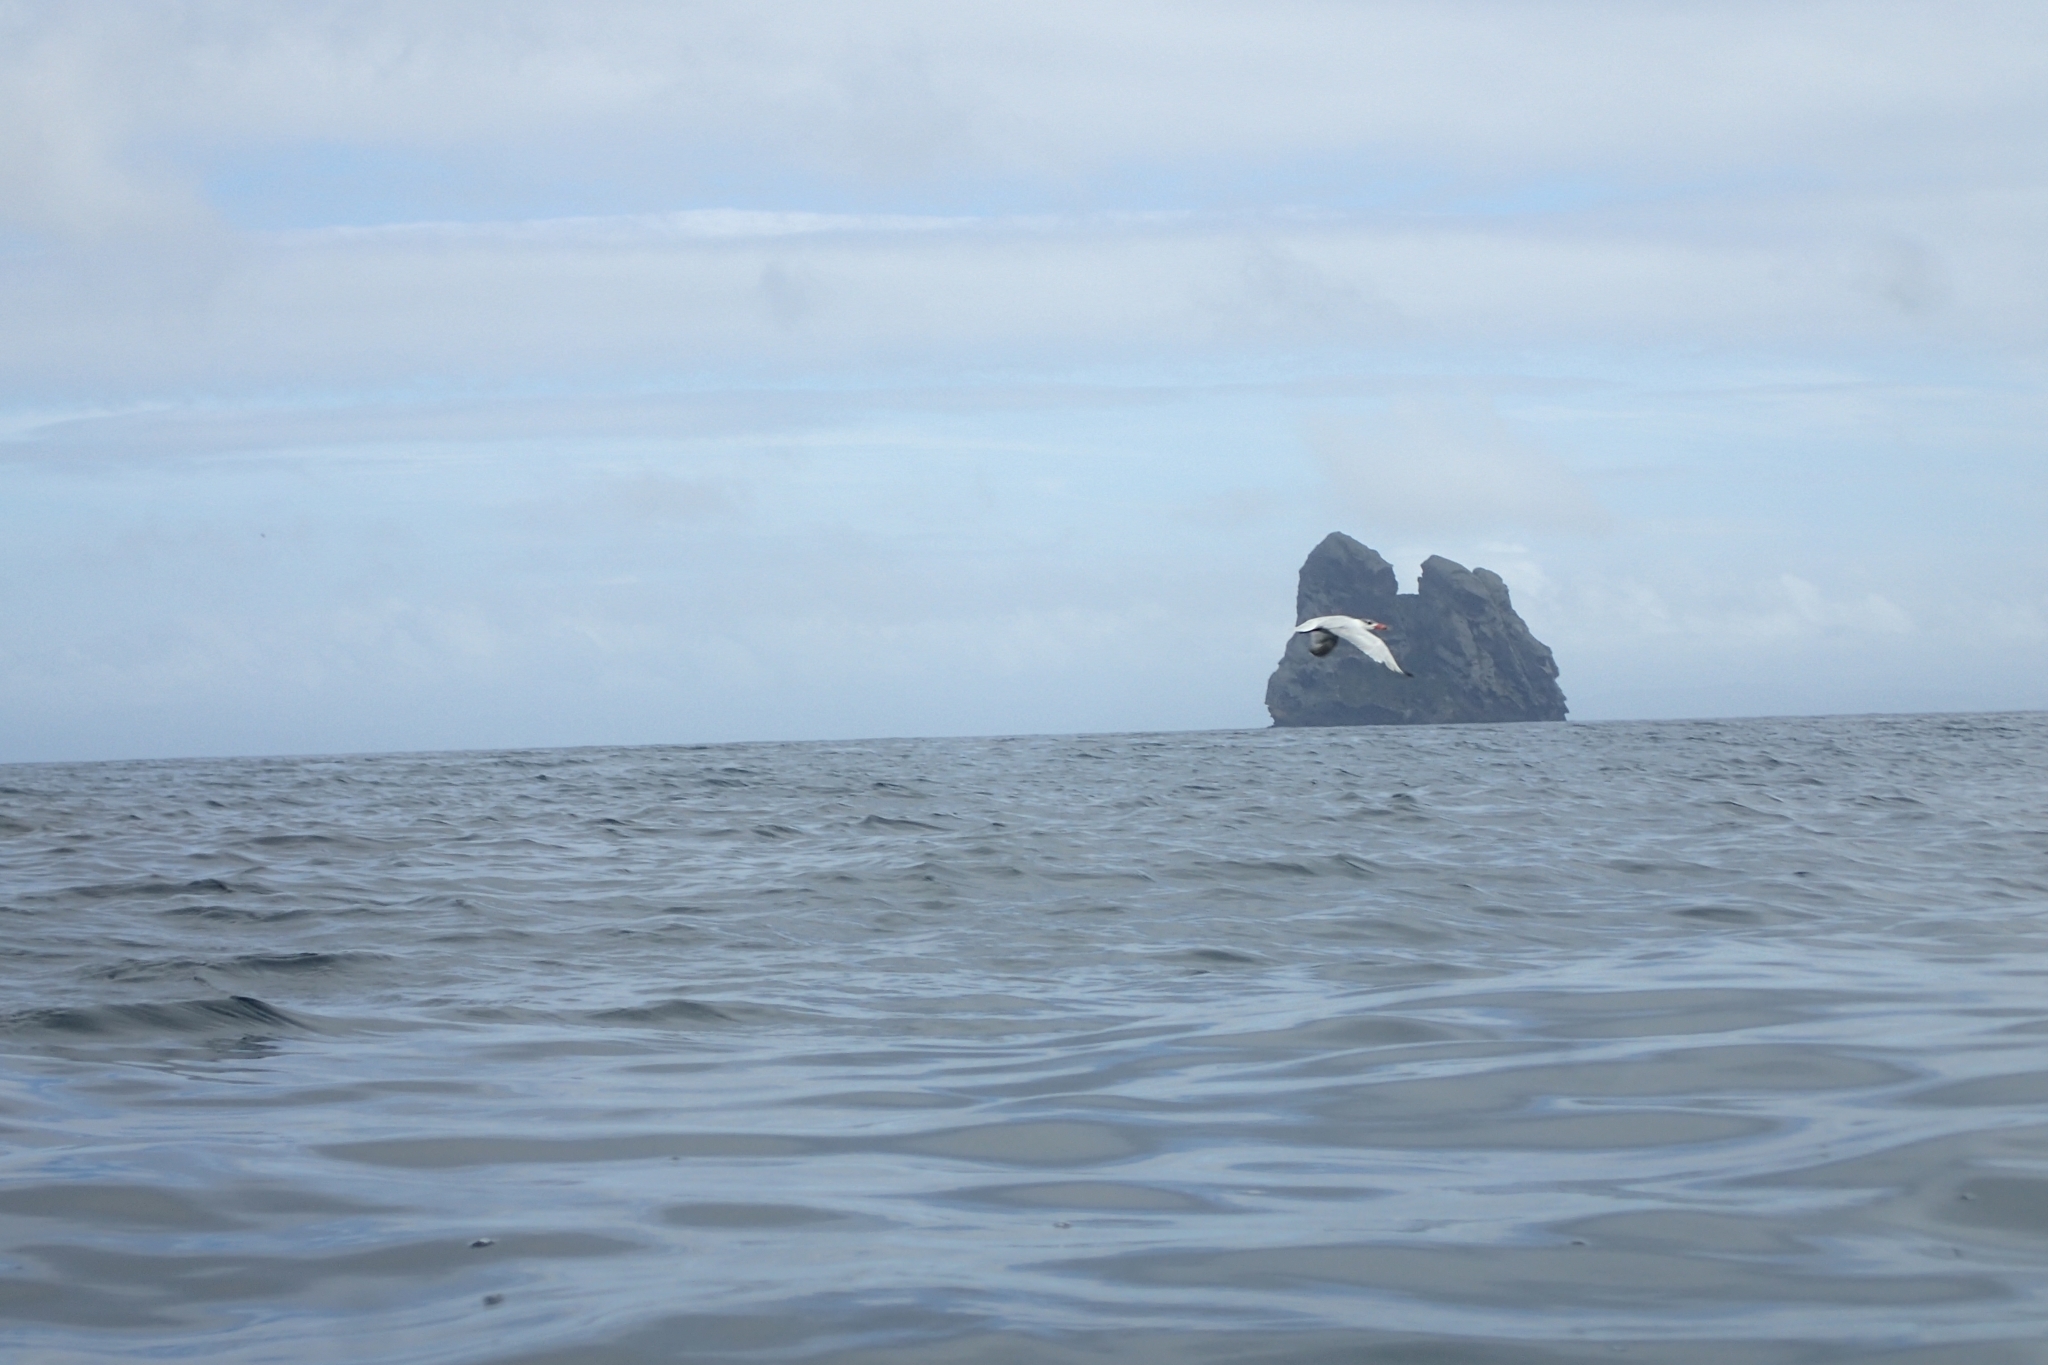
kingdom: Animalia
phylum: Chordata
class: Aves
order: Charadriiformes
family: Laridae
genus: Hydroprogne
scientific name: Hydroprogne caspia
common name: Caspian tern
